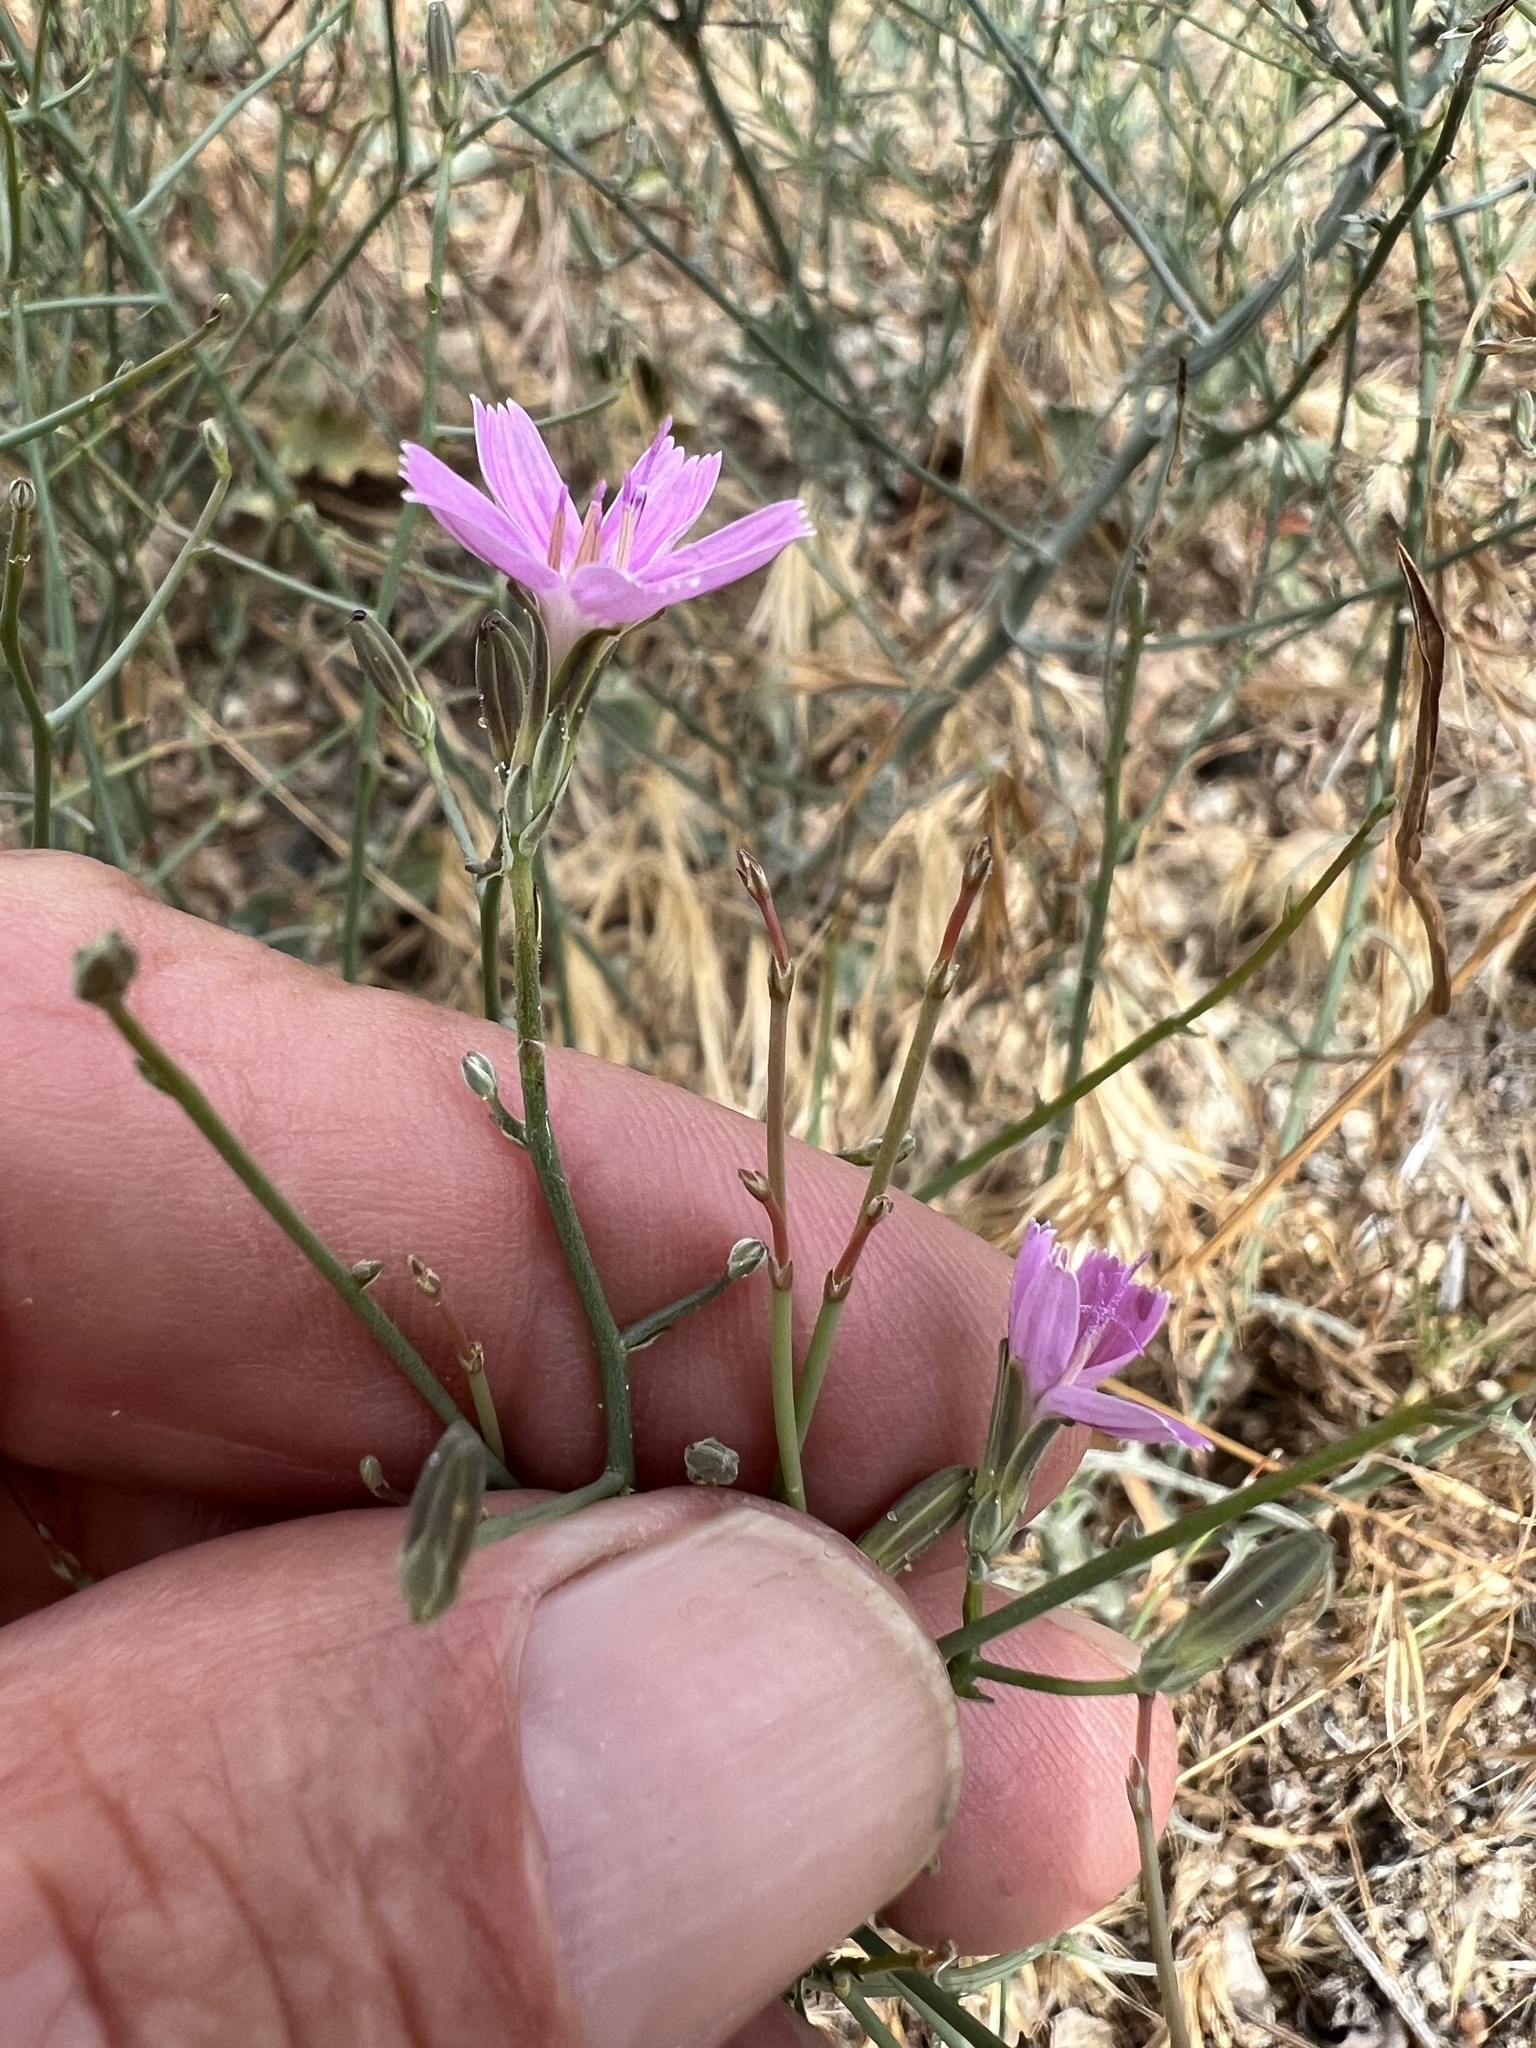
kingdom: Plantae
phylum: Tracheophyta
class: Magnoliopsida
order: Asterales
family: Asteraceae
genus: Stephanomeria
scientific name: Stephanomeria exigua
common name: Small wirelettuce
